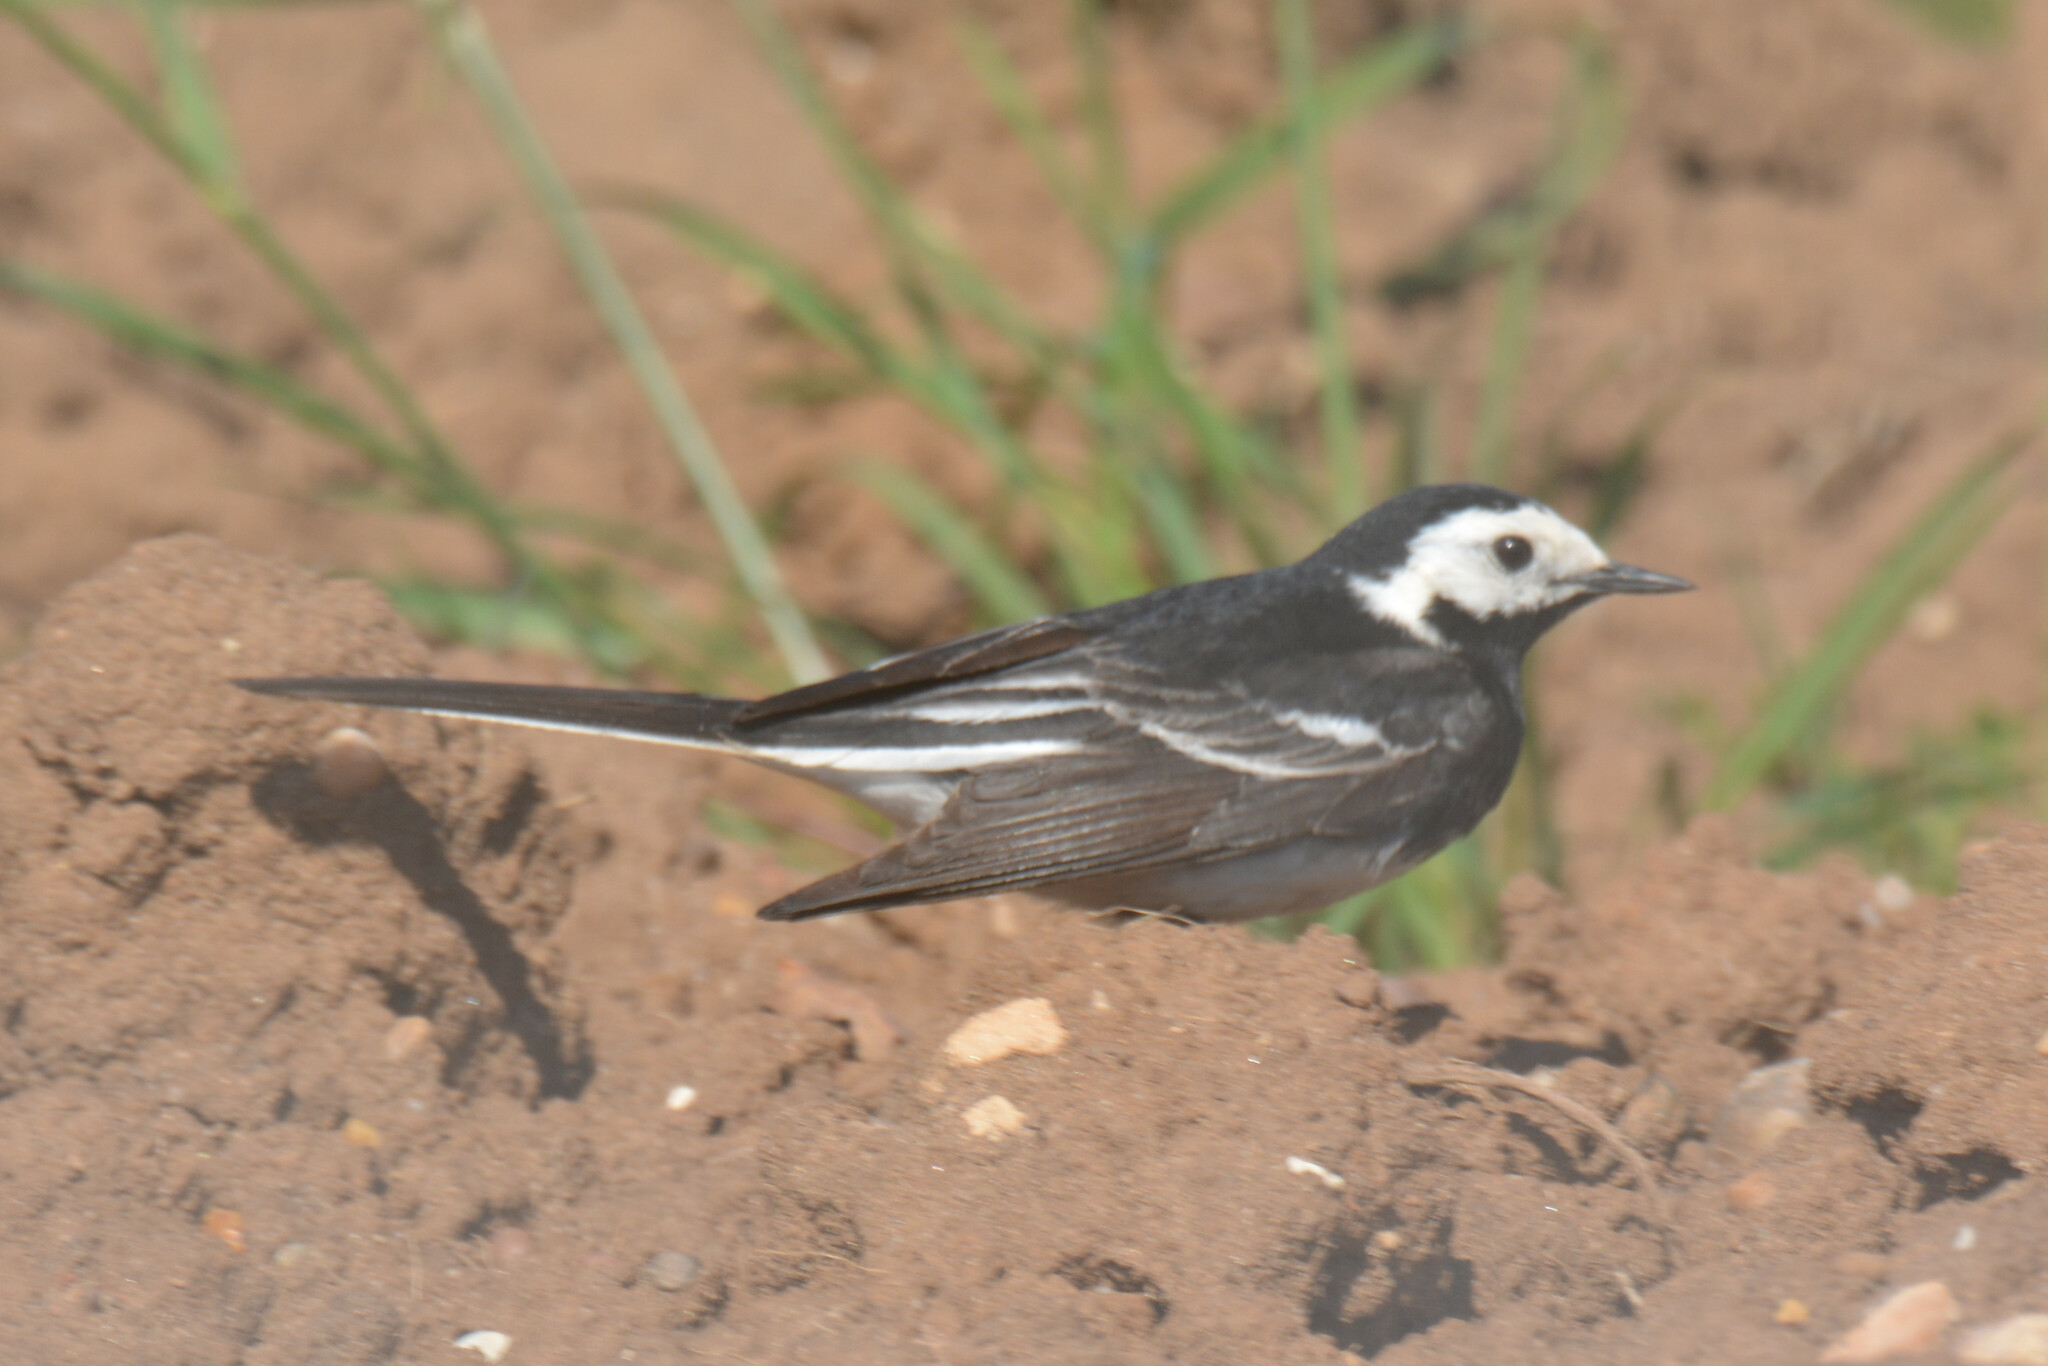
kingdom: Animalia
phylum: Chordata
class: Aves
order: Passeriformes
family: Motacillidae
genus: Motacilla
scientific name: Motacilla alba
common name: White wagtail
